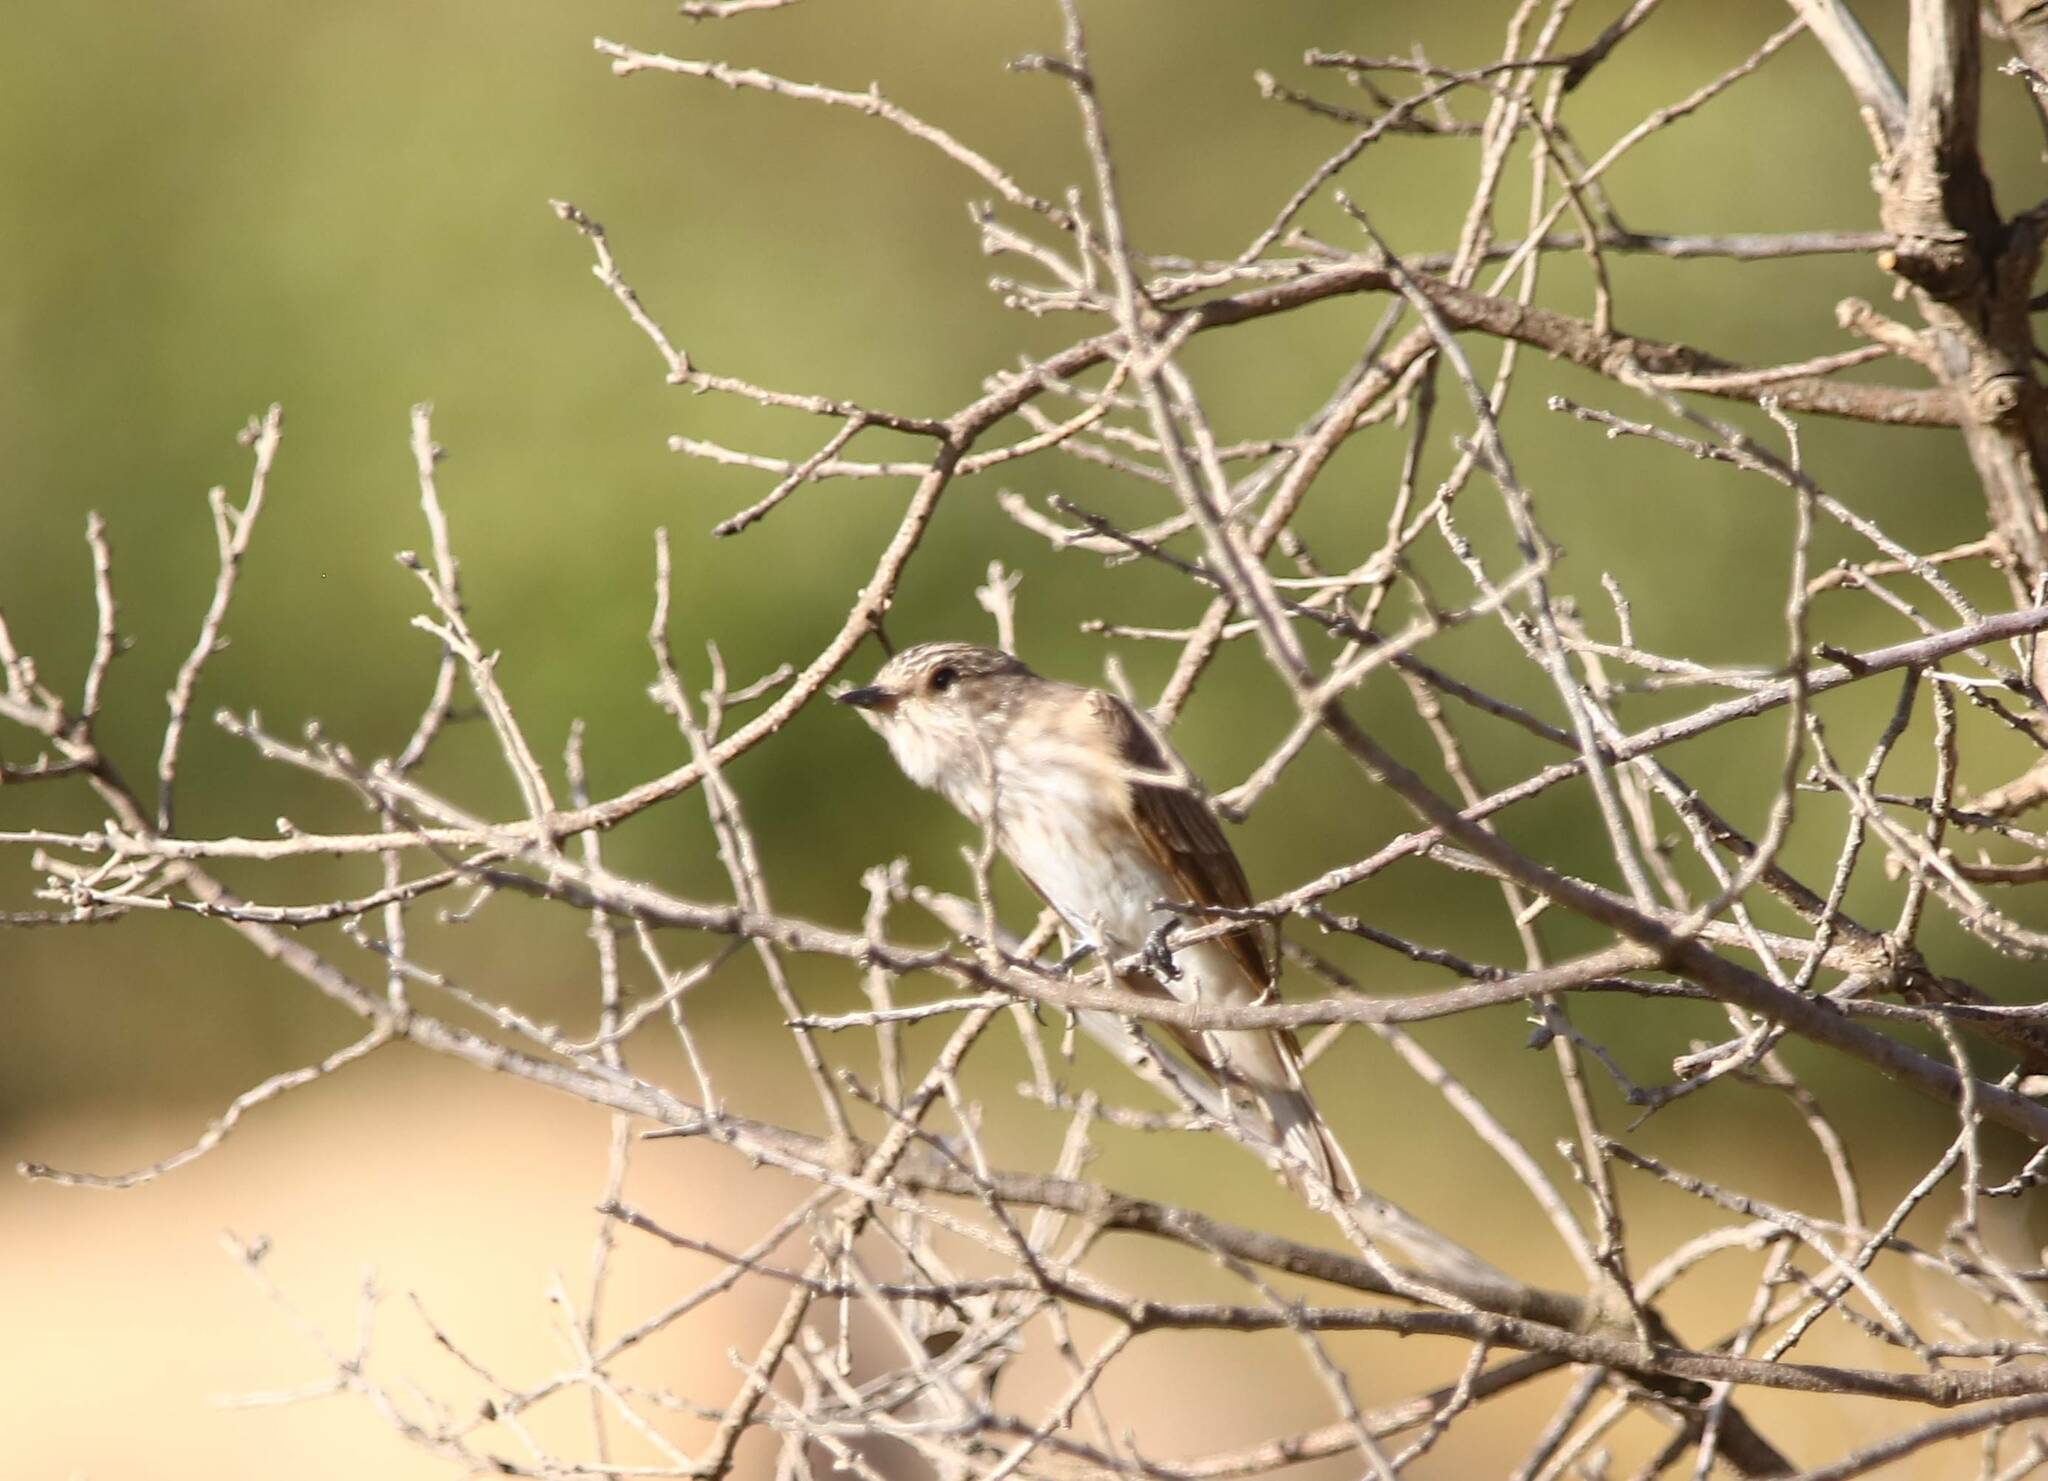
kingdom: Animalia
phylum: Chordata
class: Aves
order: Passeriformes
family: Muscicapidae
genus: Muscicapa
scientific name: Muscicapa striata
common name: Spotted flycatcher
